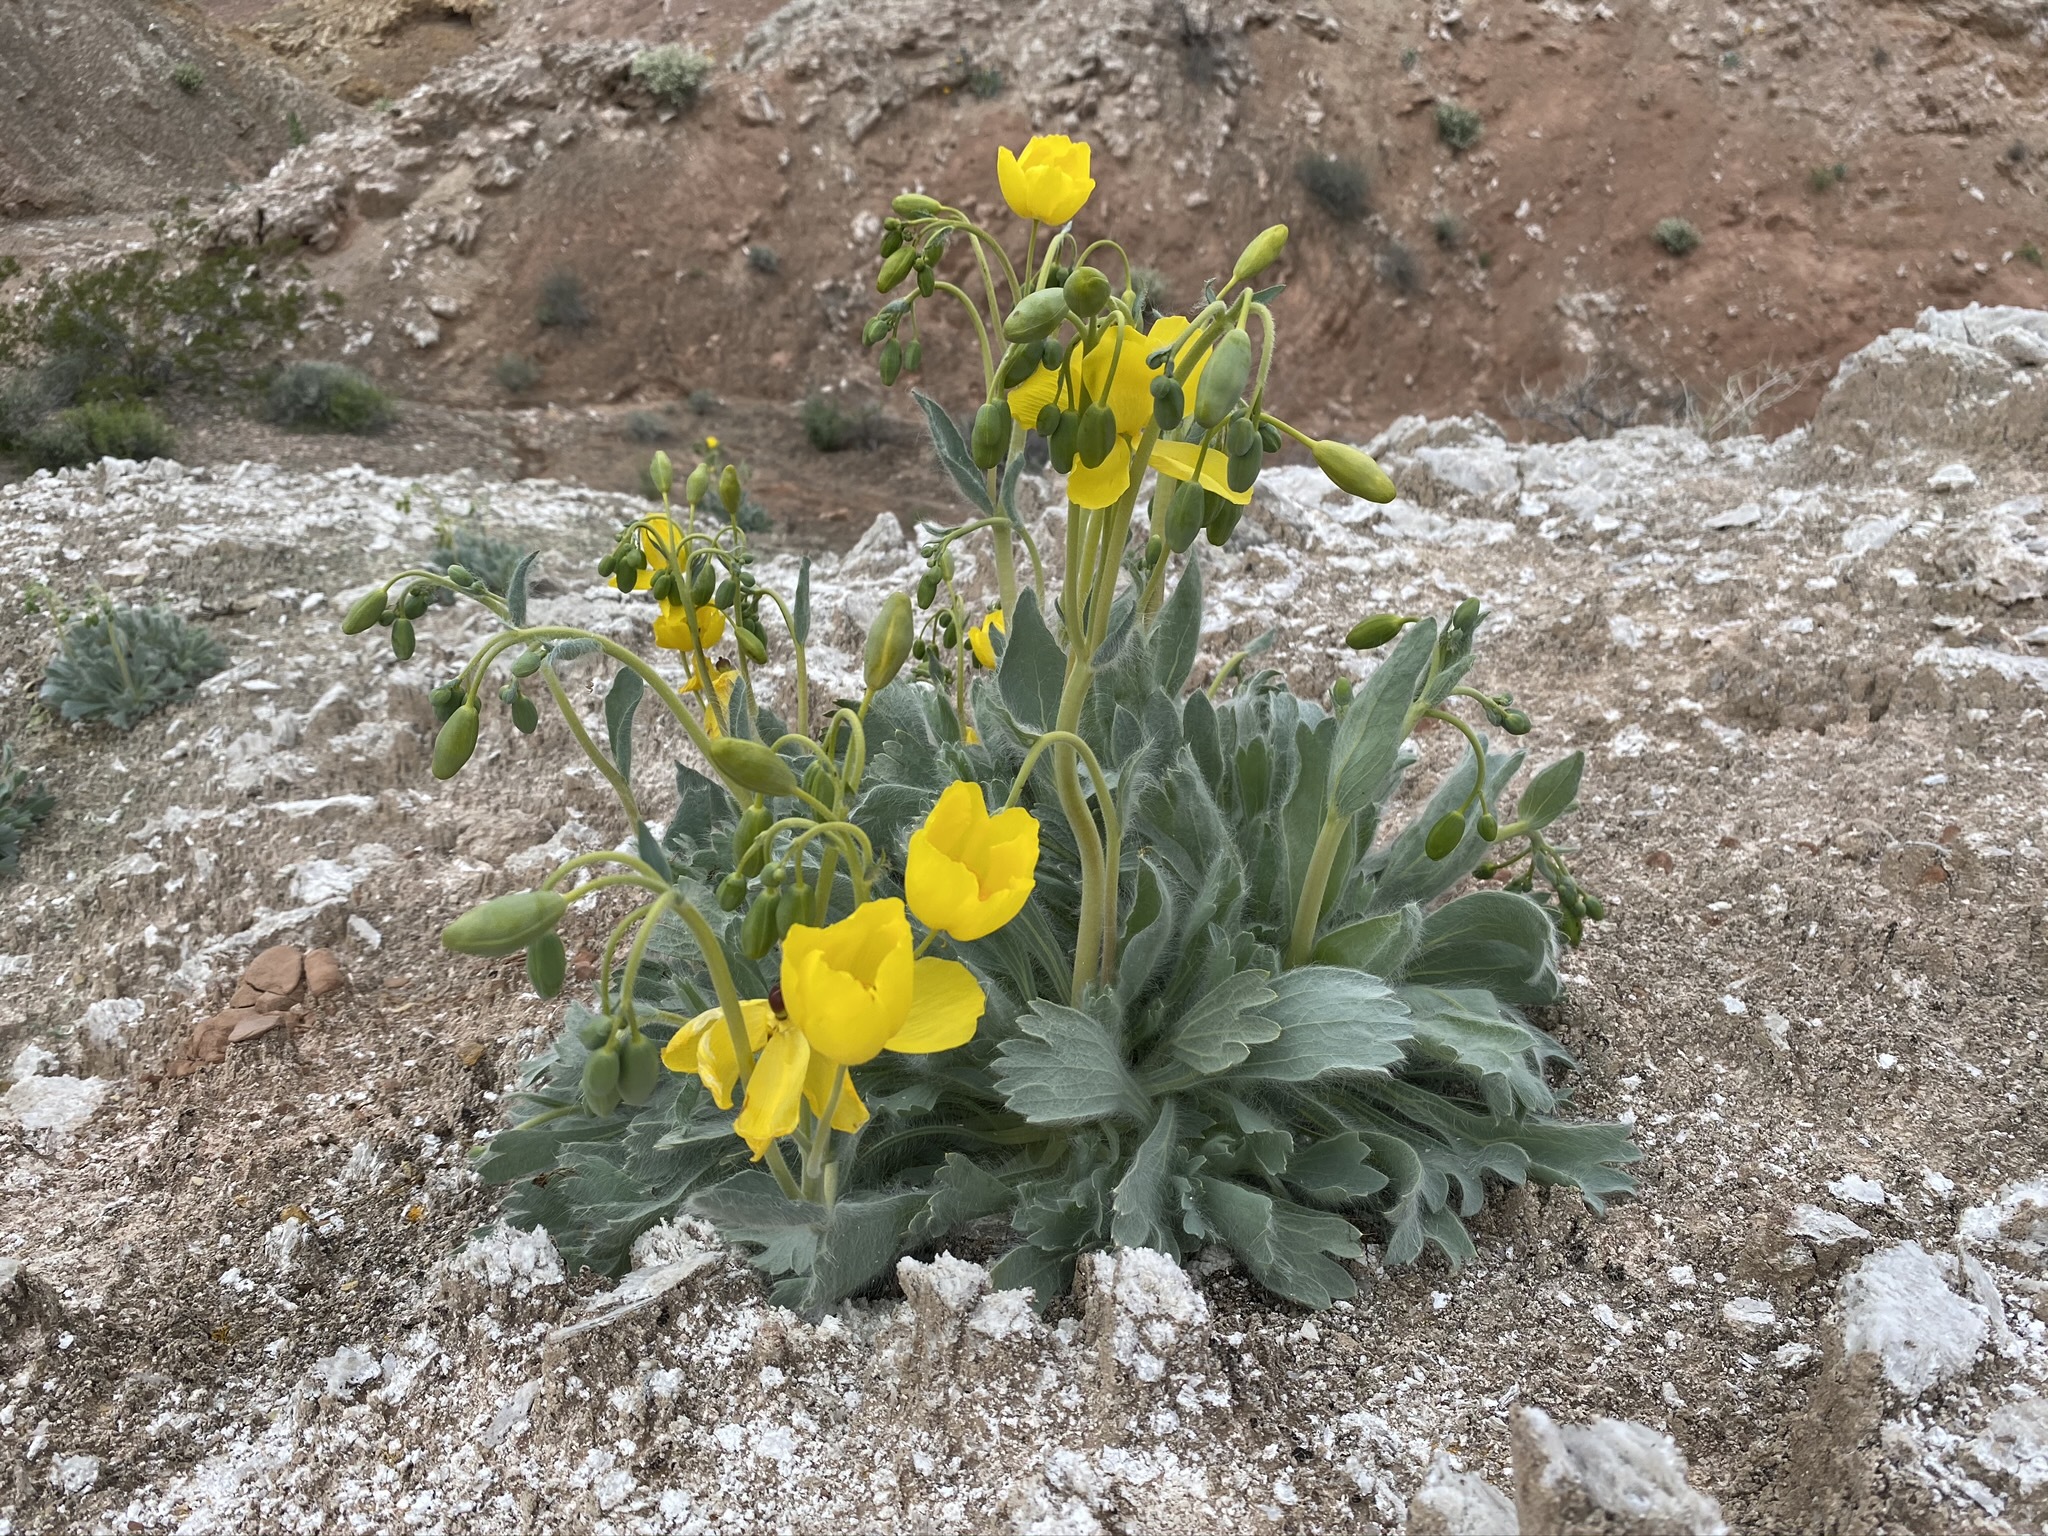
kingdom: Plantae
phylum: Tracheophyta
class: Magnoliopsida
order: Ranunculales
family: Papaveraceae
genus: Arctomecon
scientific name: Arctomecon californicum
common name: Golden bearclaw-poppy
